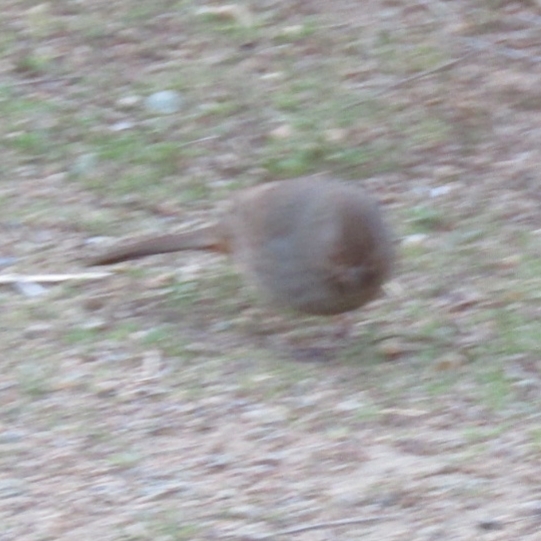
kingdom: Animalia
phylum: Chordata
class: Aves
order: Passeriformes
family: Passerellidae
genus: Melozone
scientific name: Melozone crissalis
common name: California towhee
